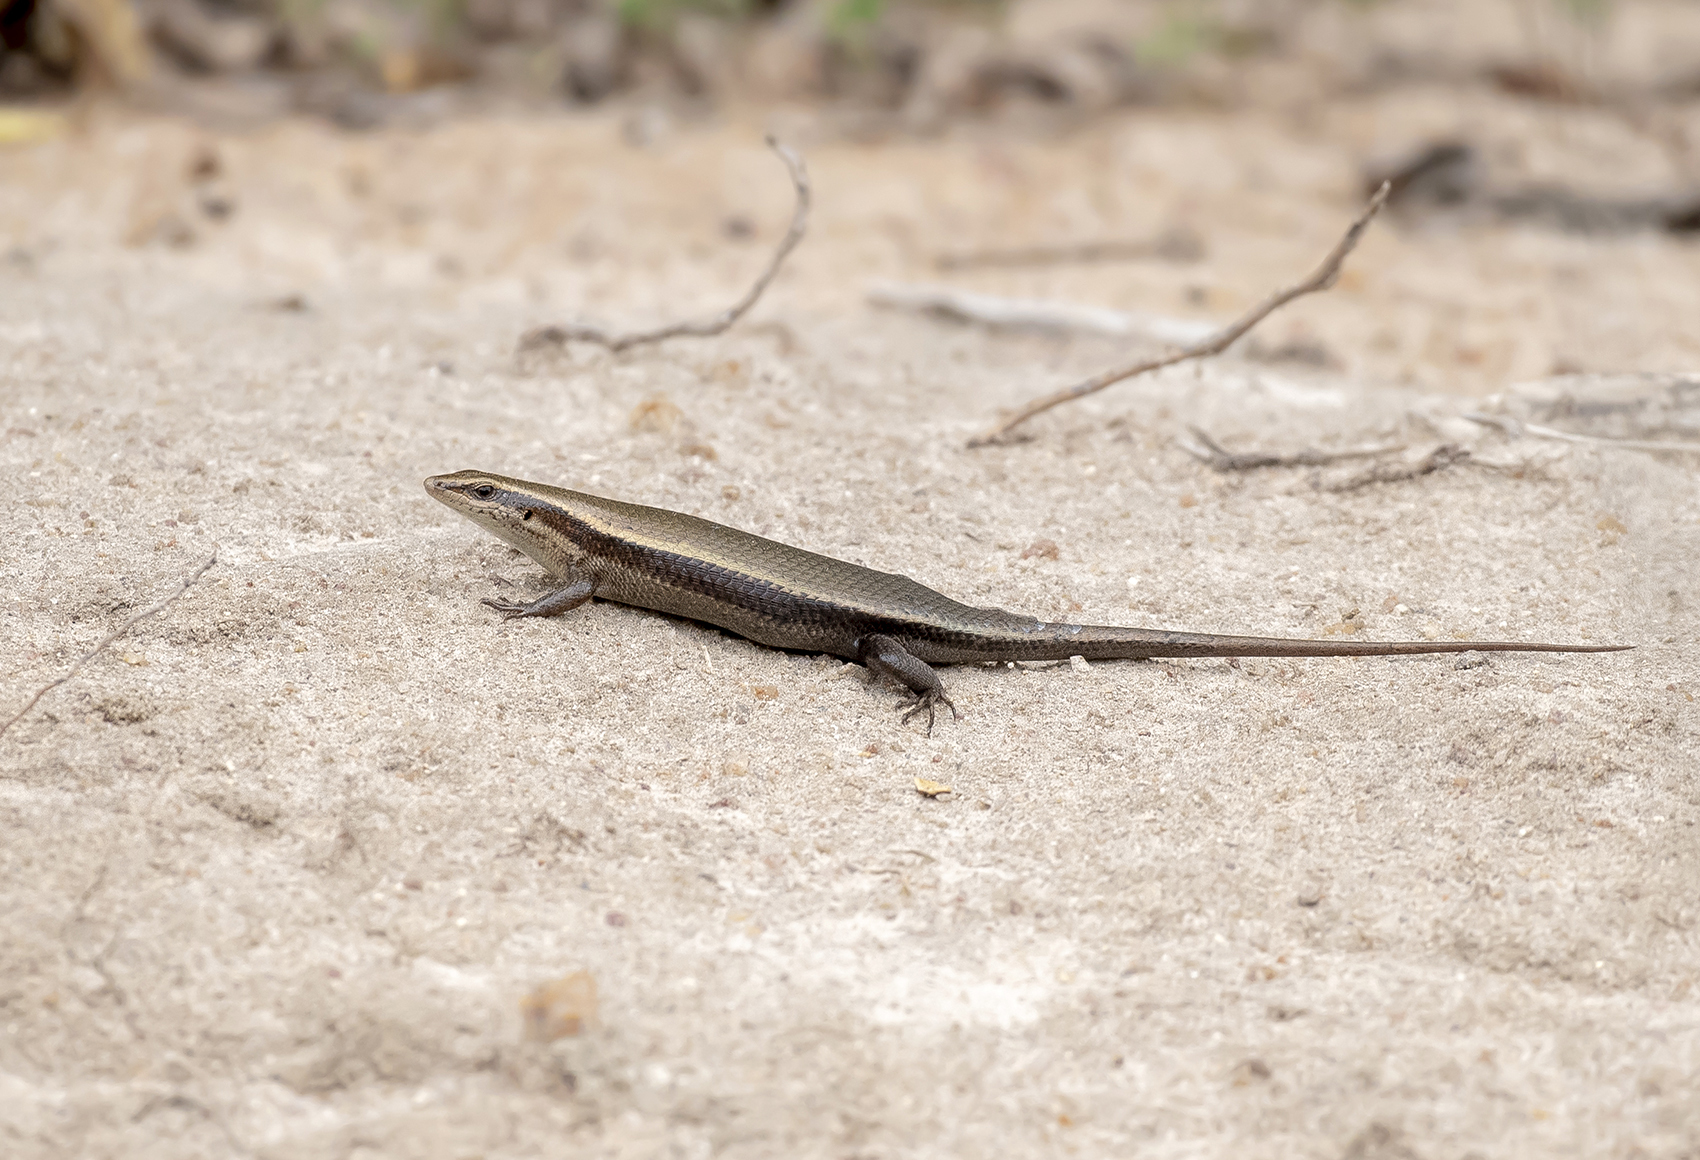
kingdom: Animalia
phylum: Chordata
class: Squamata
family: Scincidae
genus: Eutropis
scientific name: Eutropis madaraszi
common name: Sri lanka bronze skink
